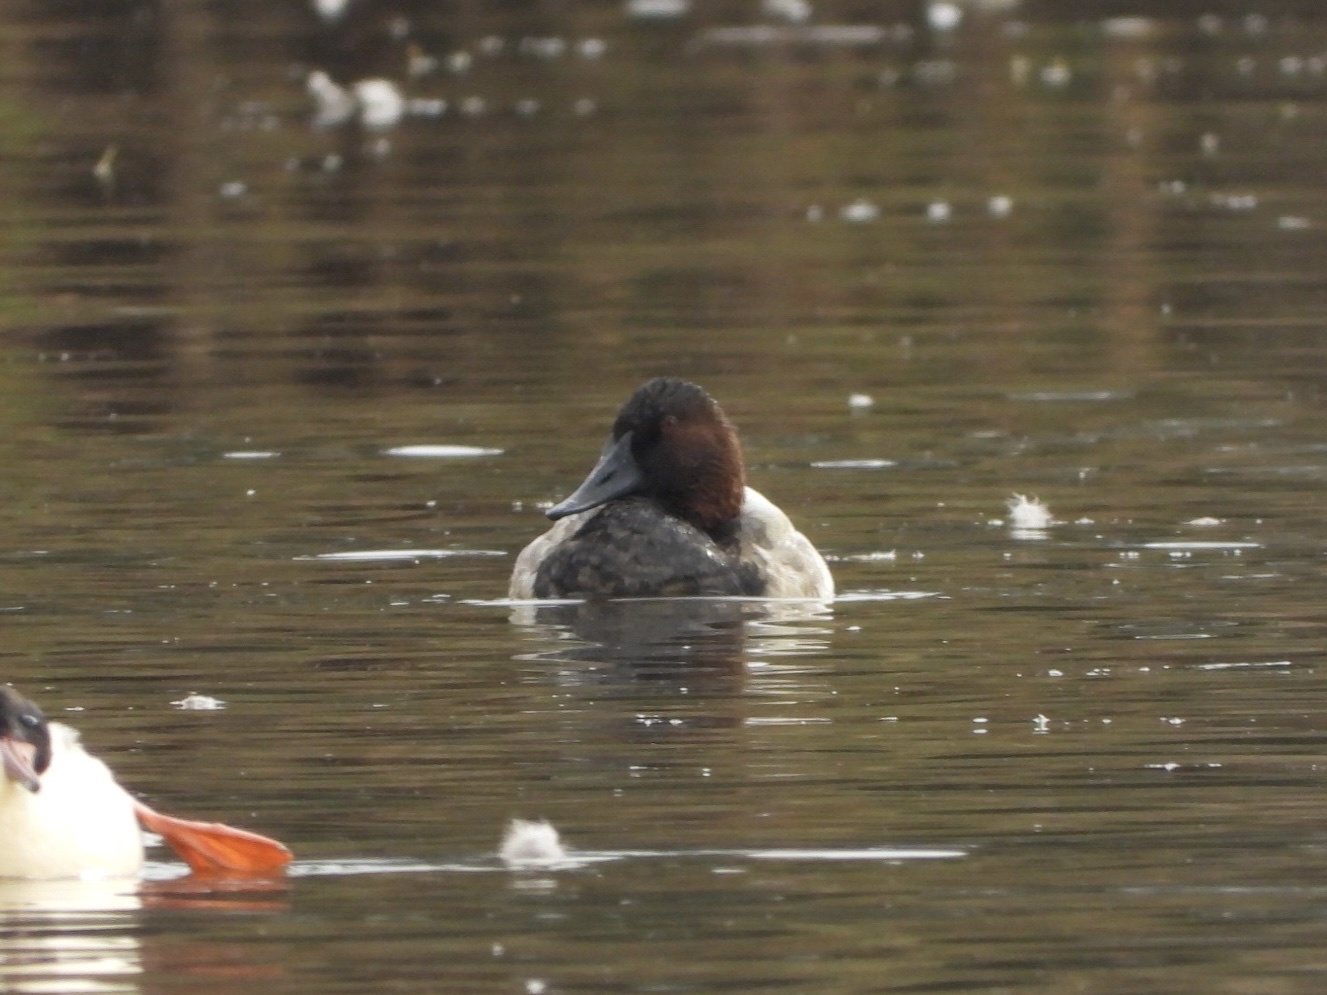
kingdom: Animalia
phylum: Chordata
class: Aves
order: Anseriformes
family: Anatidae
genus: Aythya
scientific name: Aythya valisineria
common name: Canvasback
